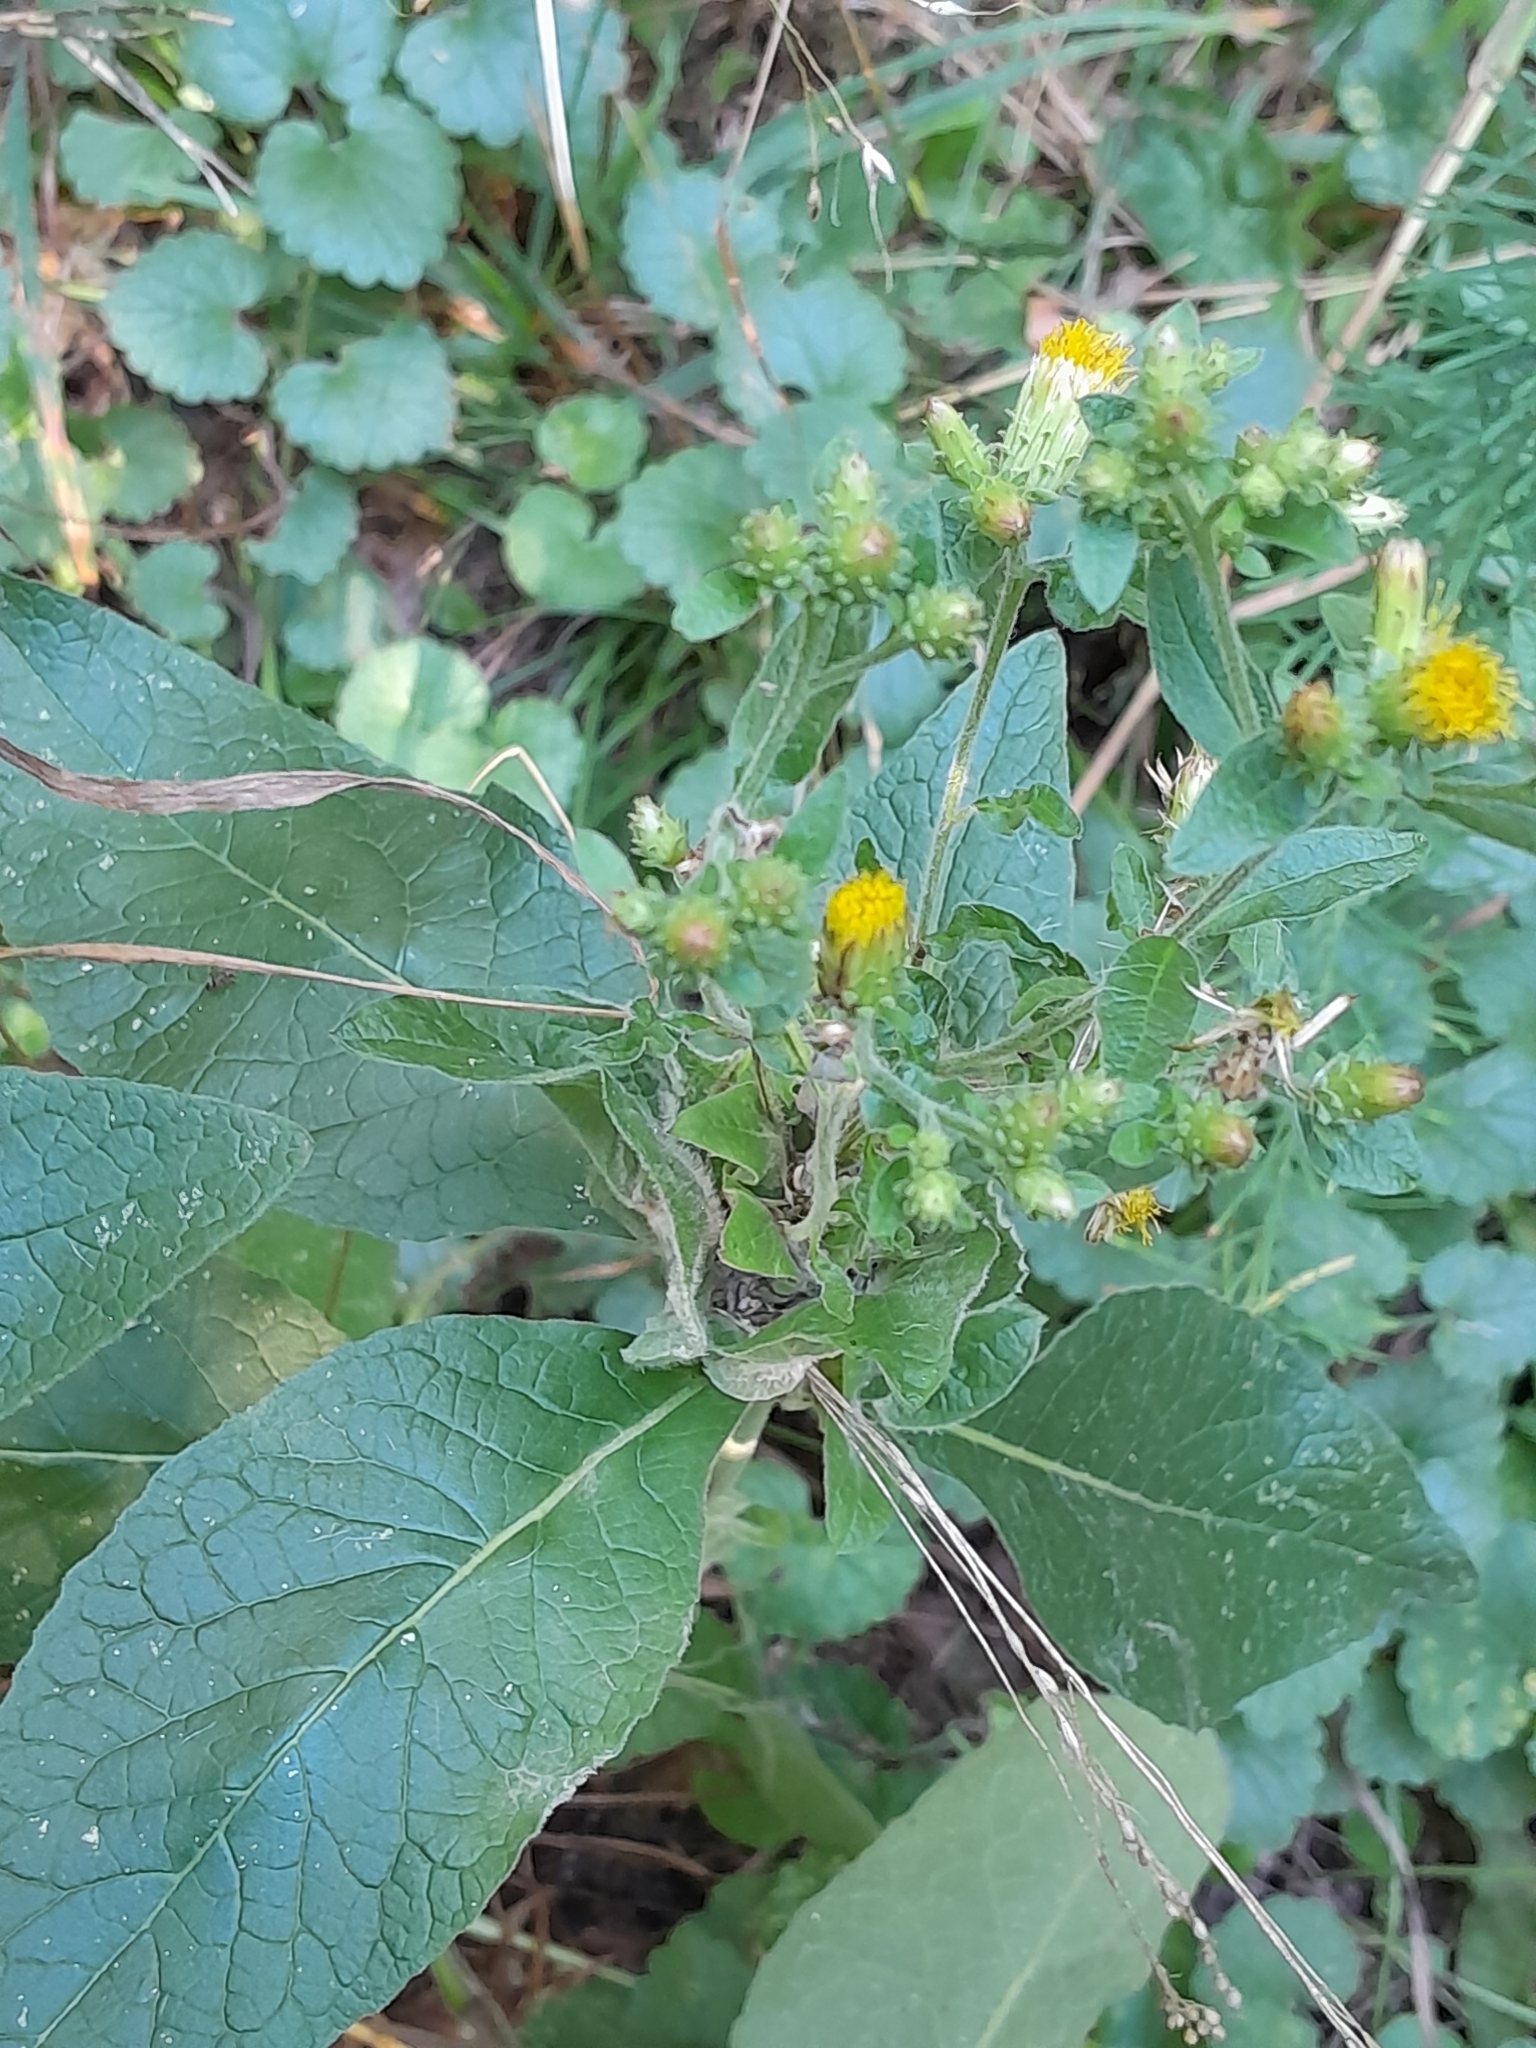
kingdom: Plantae
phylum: Tracheophyta
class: Magnoliopsida
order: Asterales
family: Asteraceae
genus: Pentanema
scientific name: Pentanema squarrosum
